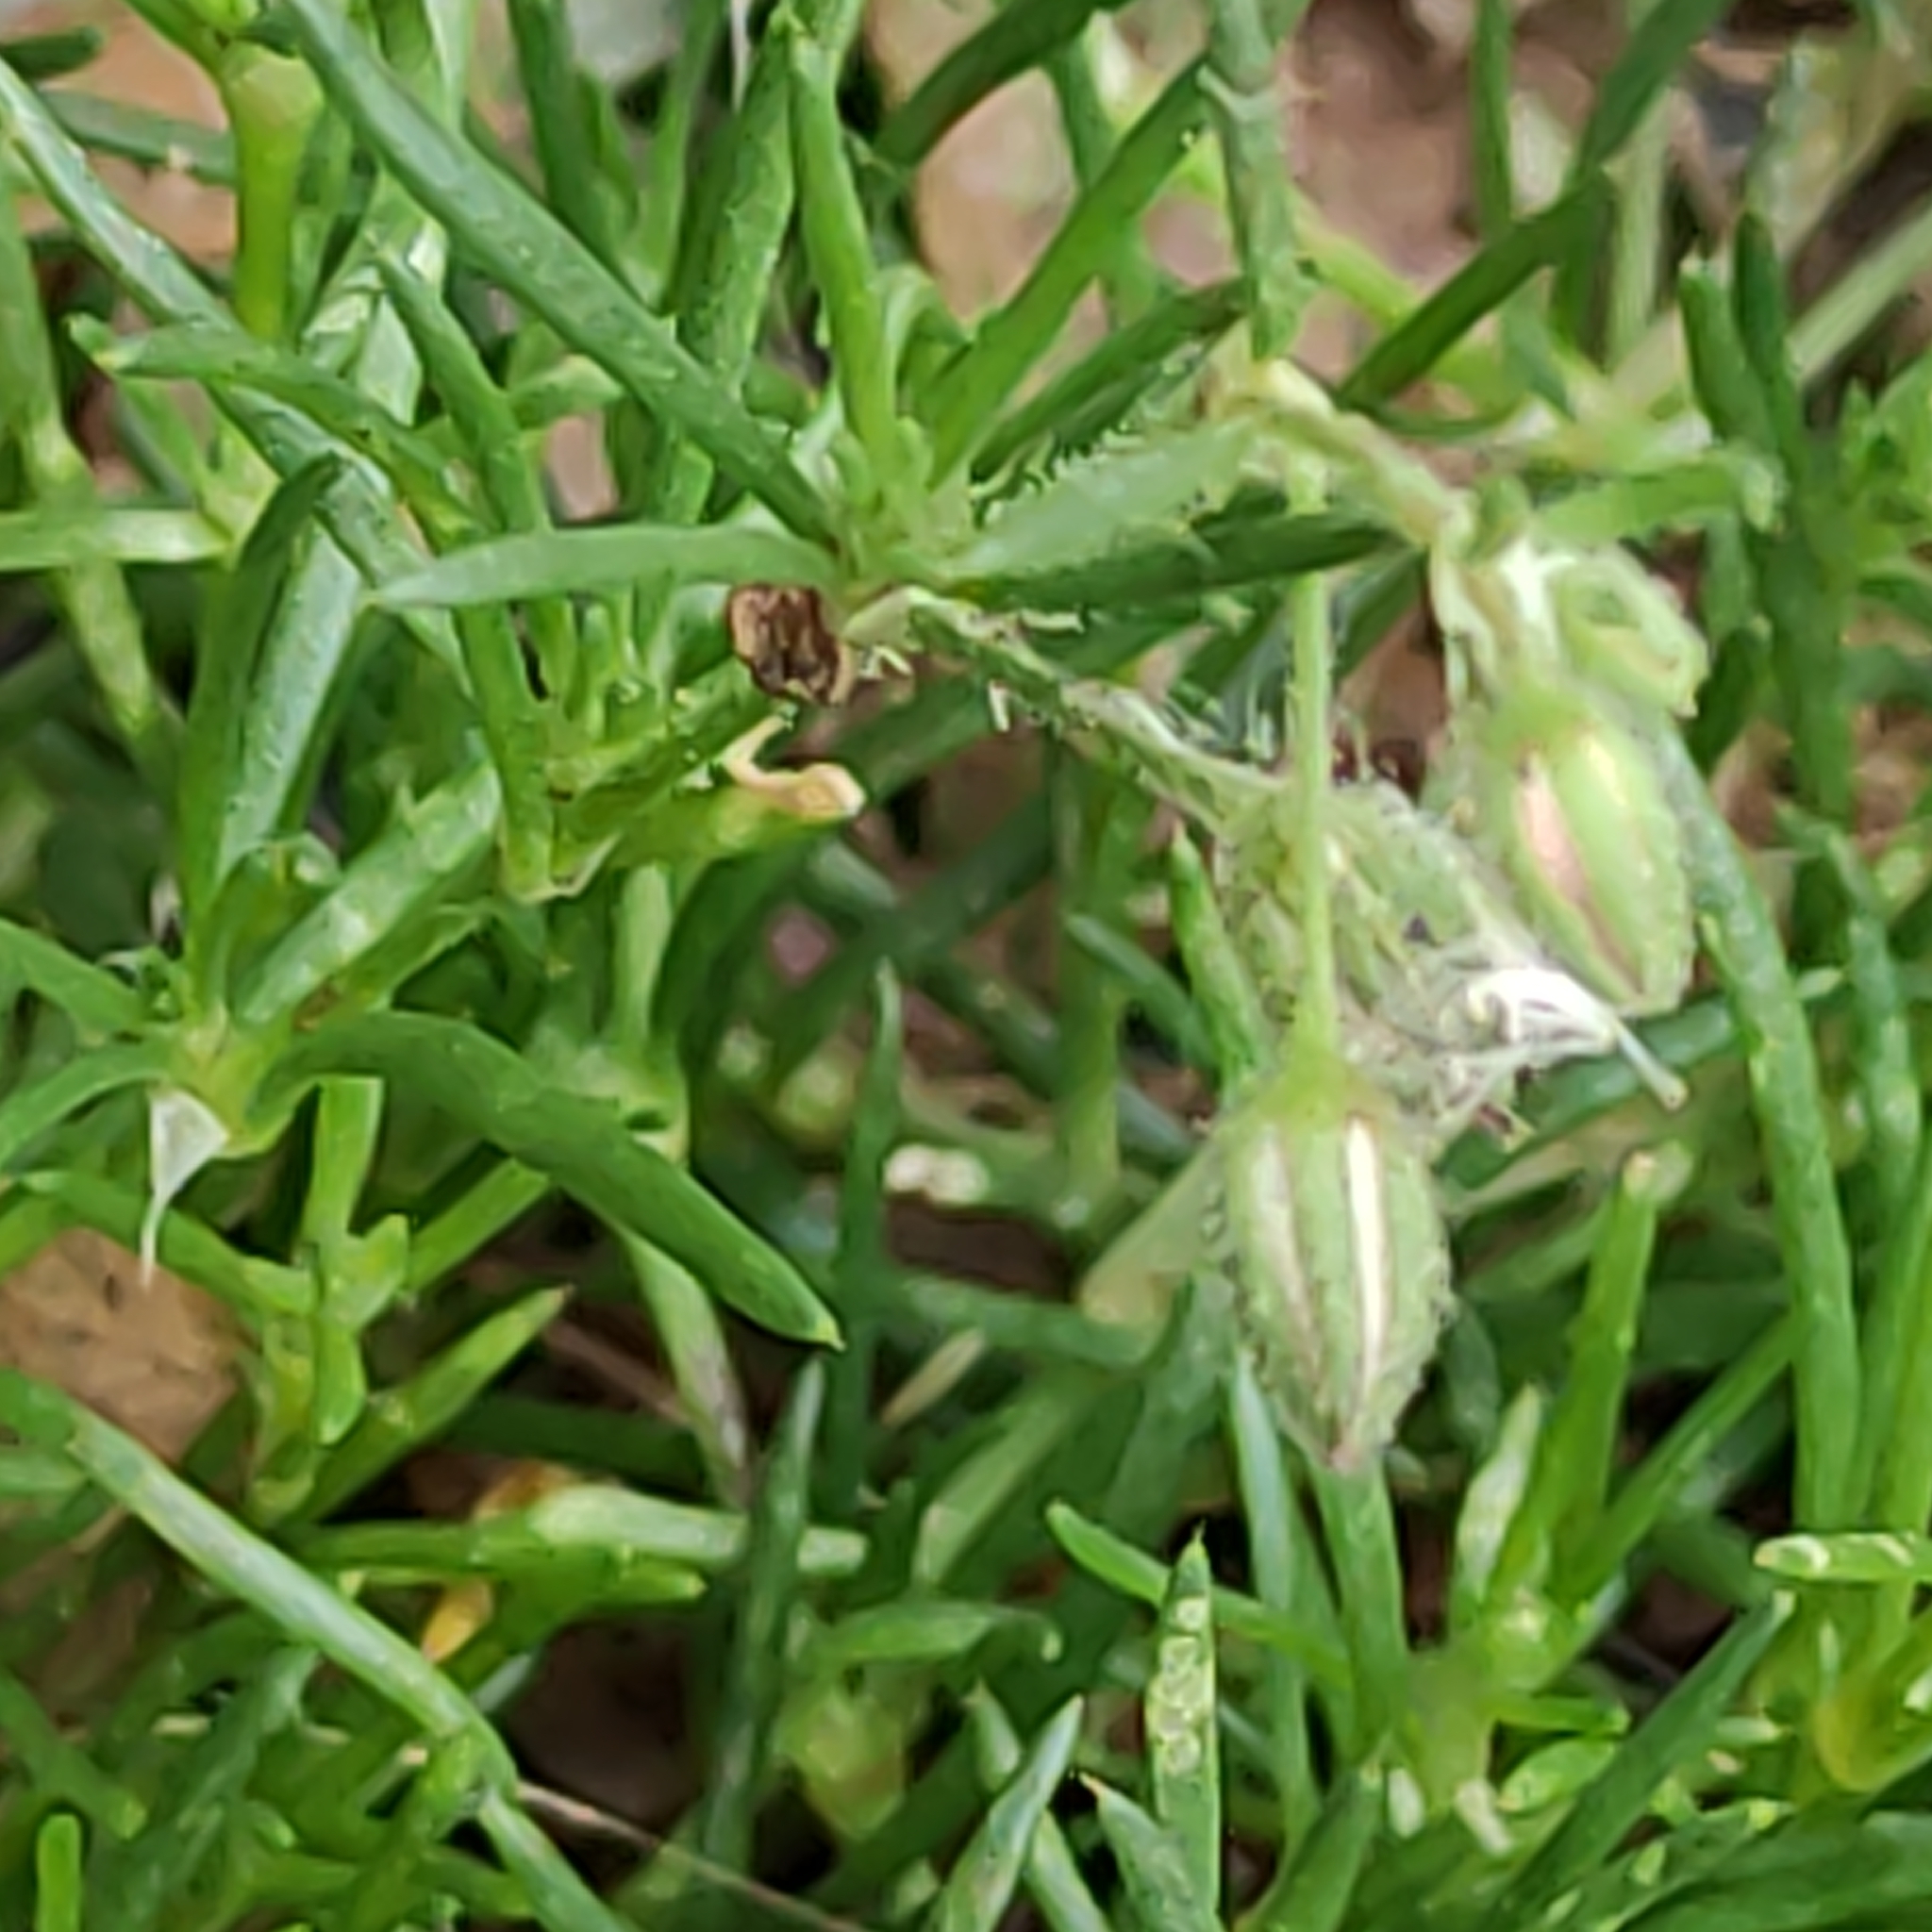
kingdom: Plantae
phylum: Tracheophyta
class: Magnoliopsida
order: Caryophyllales
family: Caryophyllaceae
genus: Spergularia
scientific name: Spergularia rubra
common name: Red sand-spurrey
